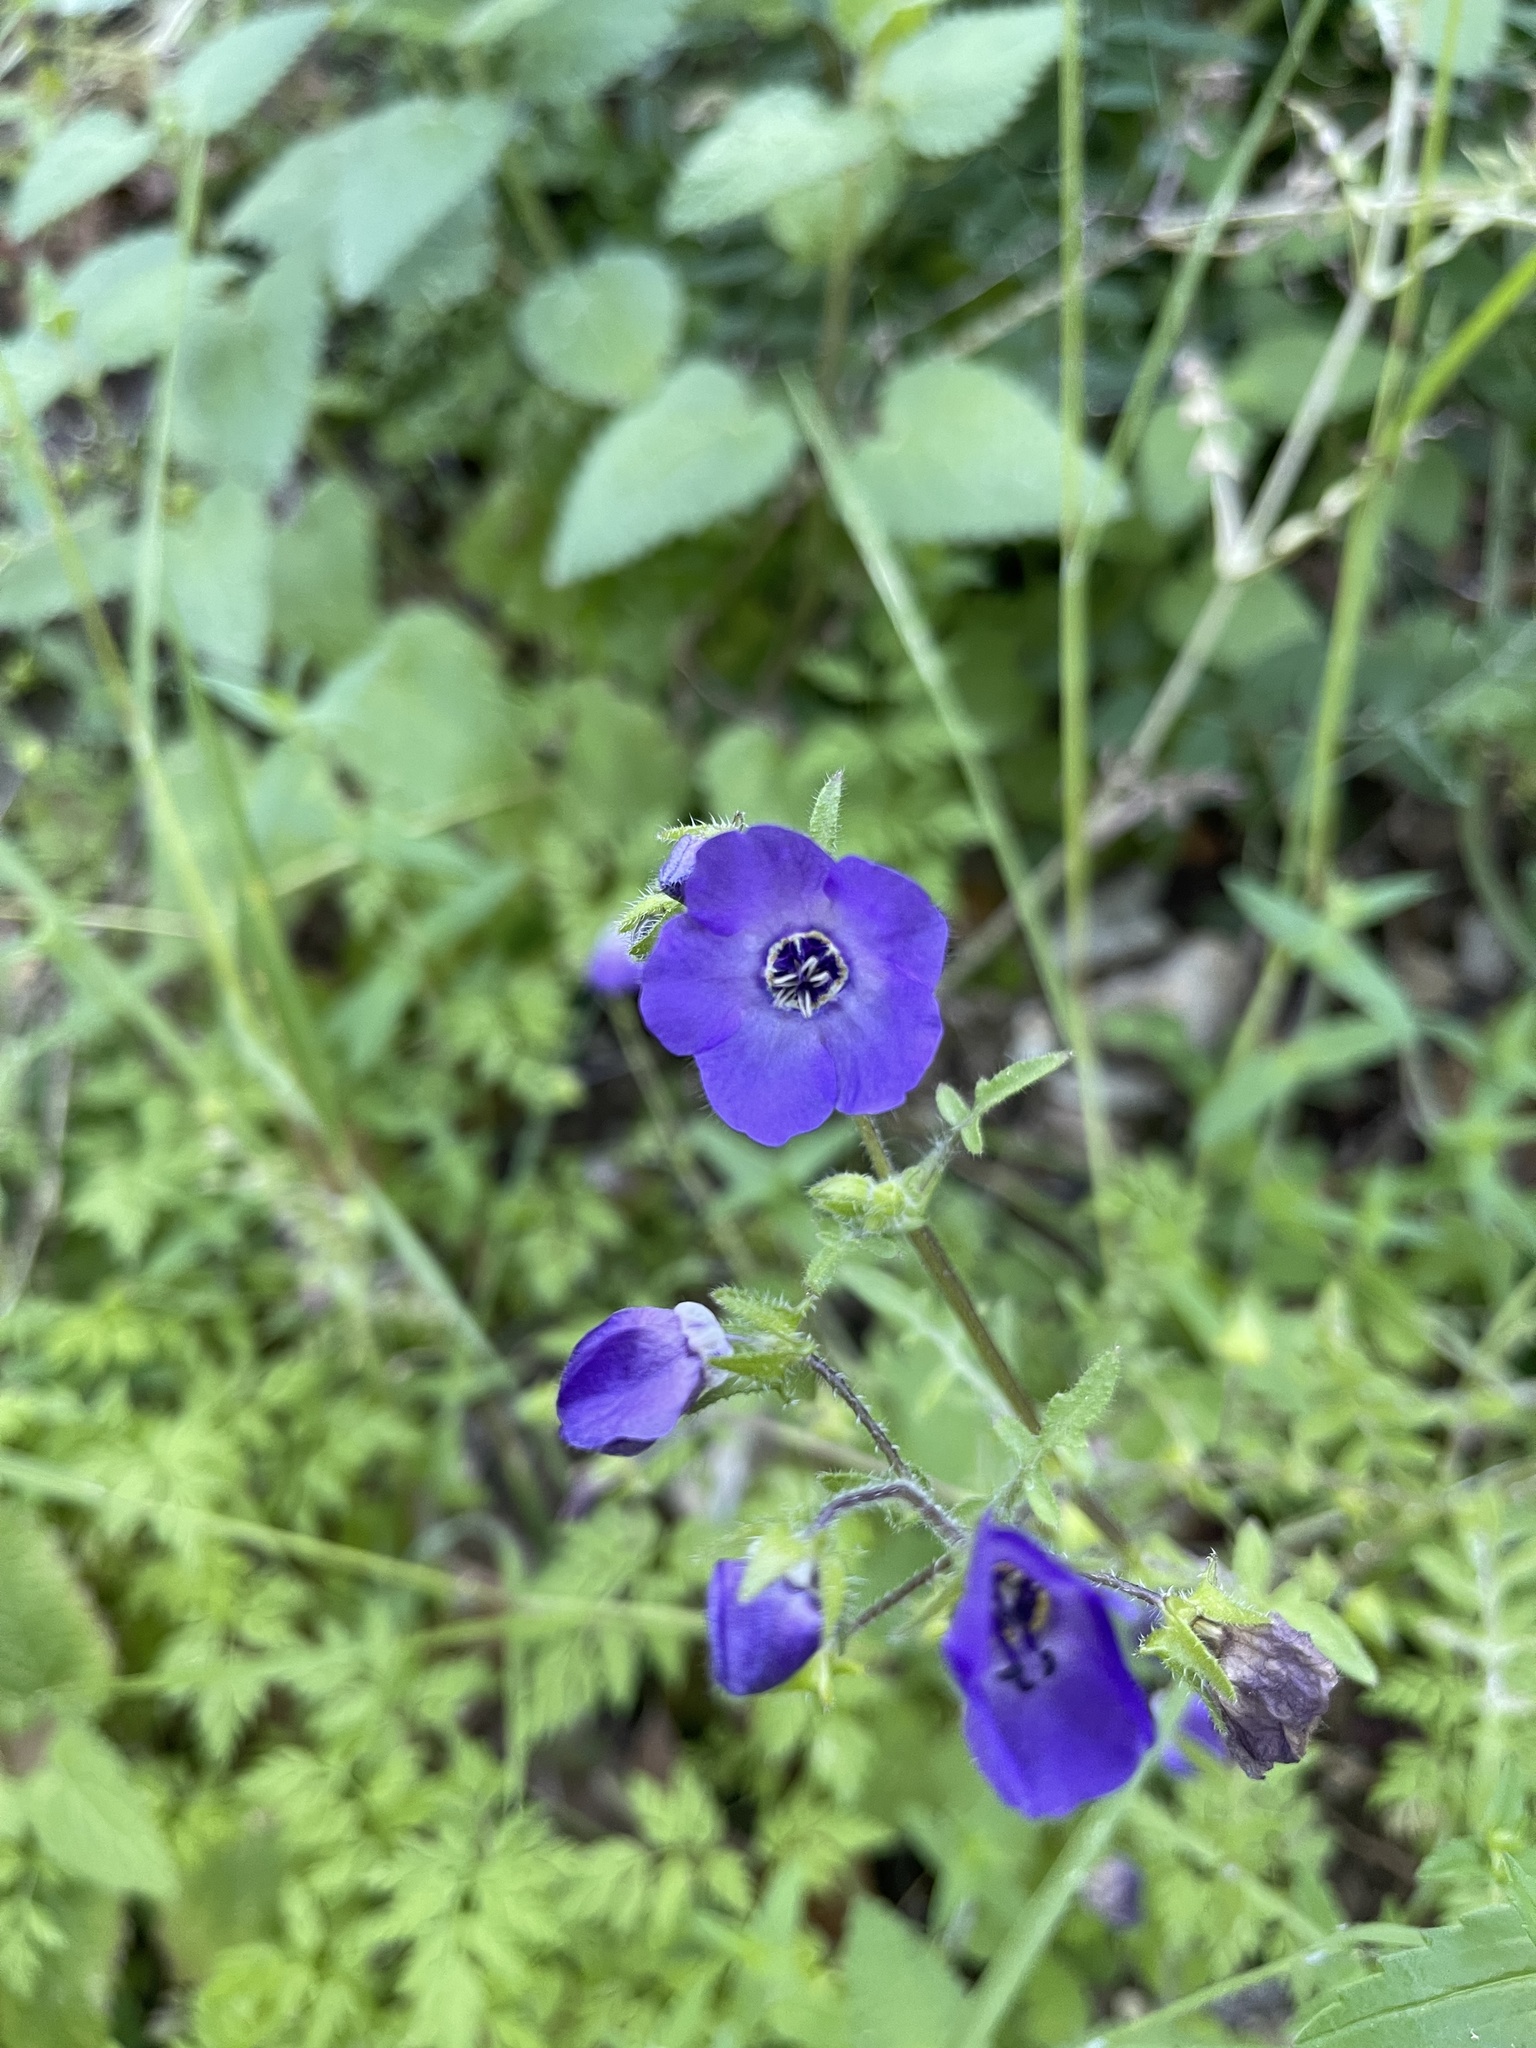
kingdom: Plantae
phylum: Tracheophyta
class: Magnoliopsida
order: Boraginales
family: Hydrophyllaceae
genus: Pholistoma
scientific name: Pholistoma auritum
